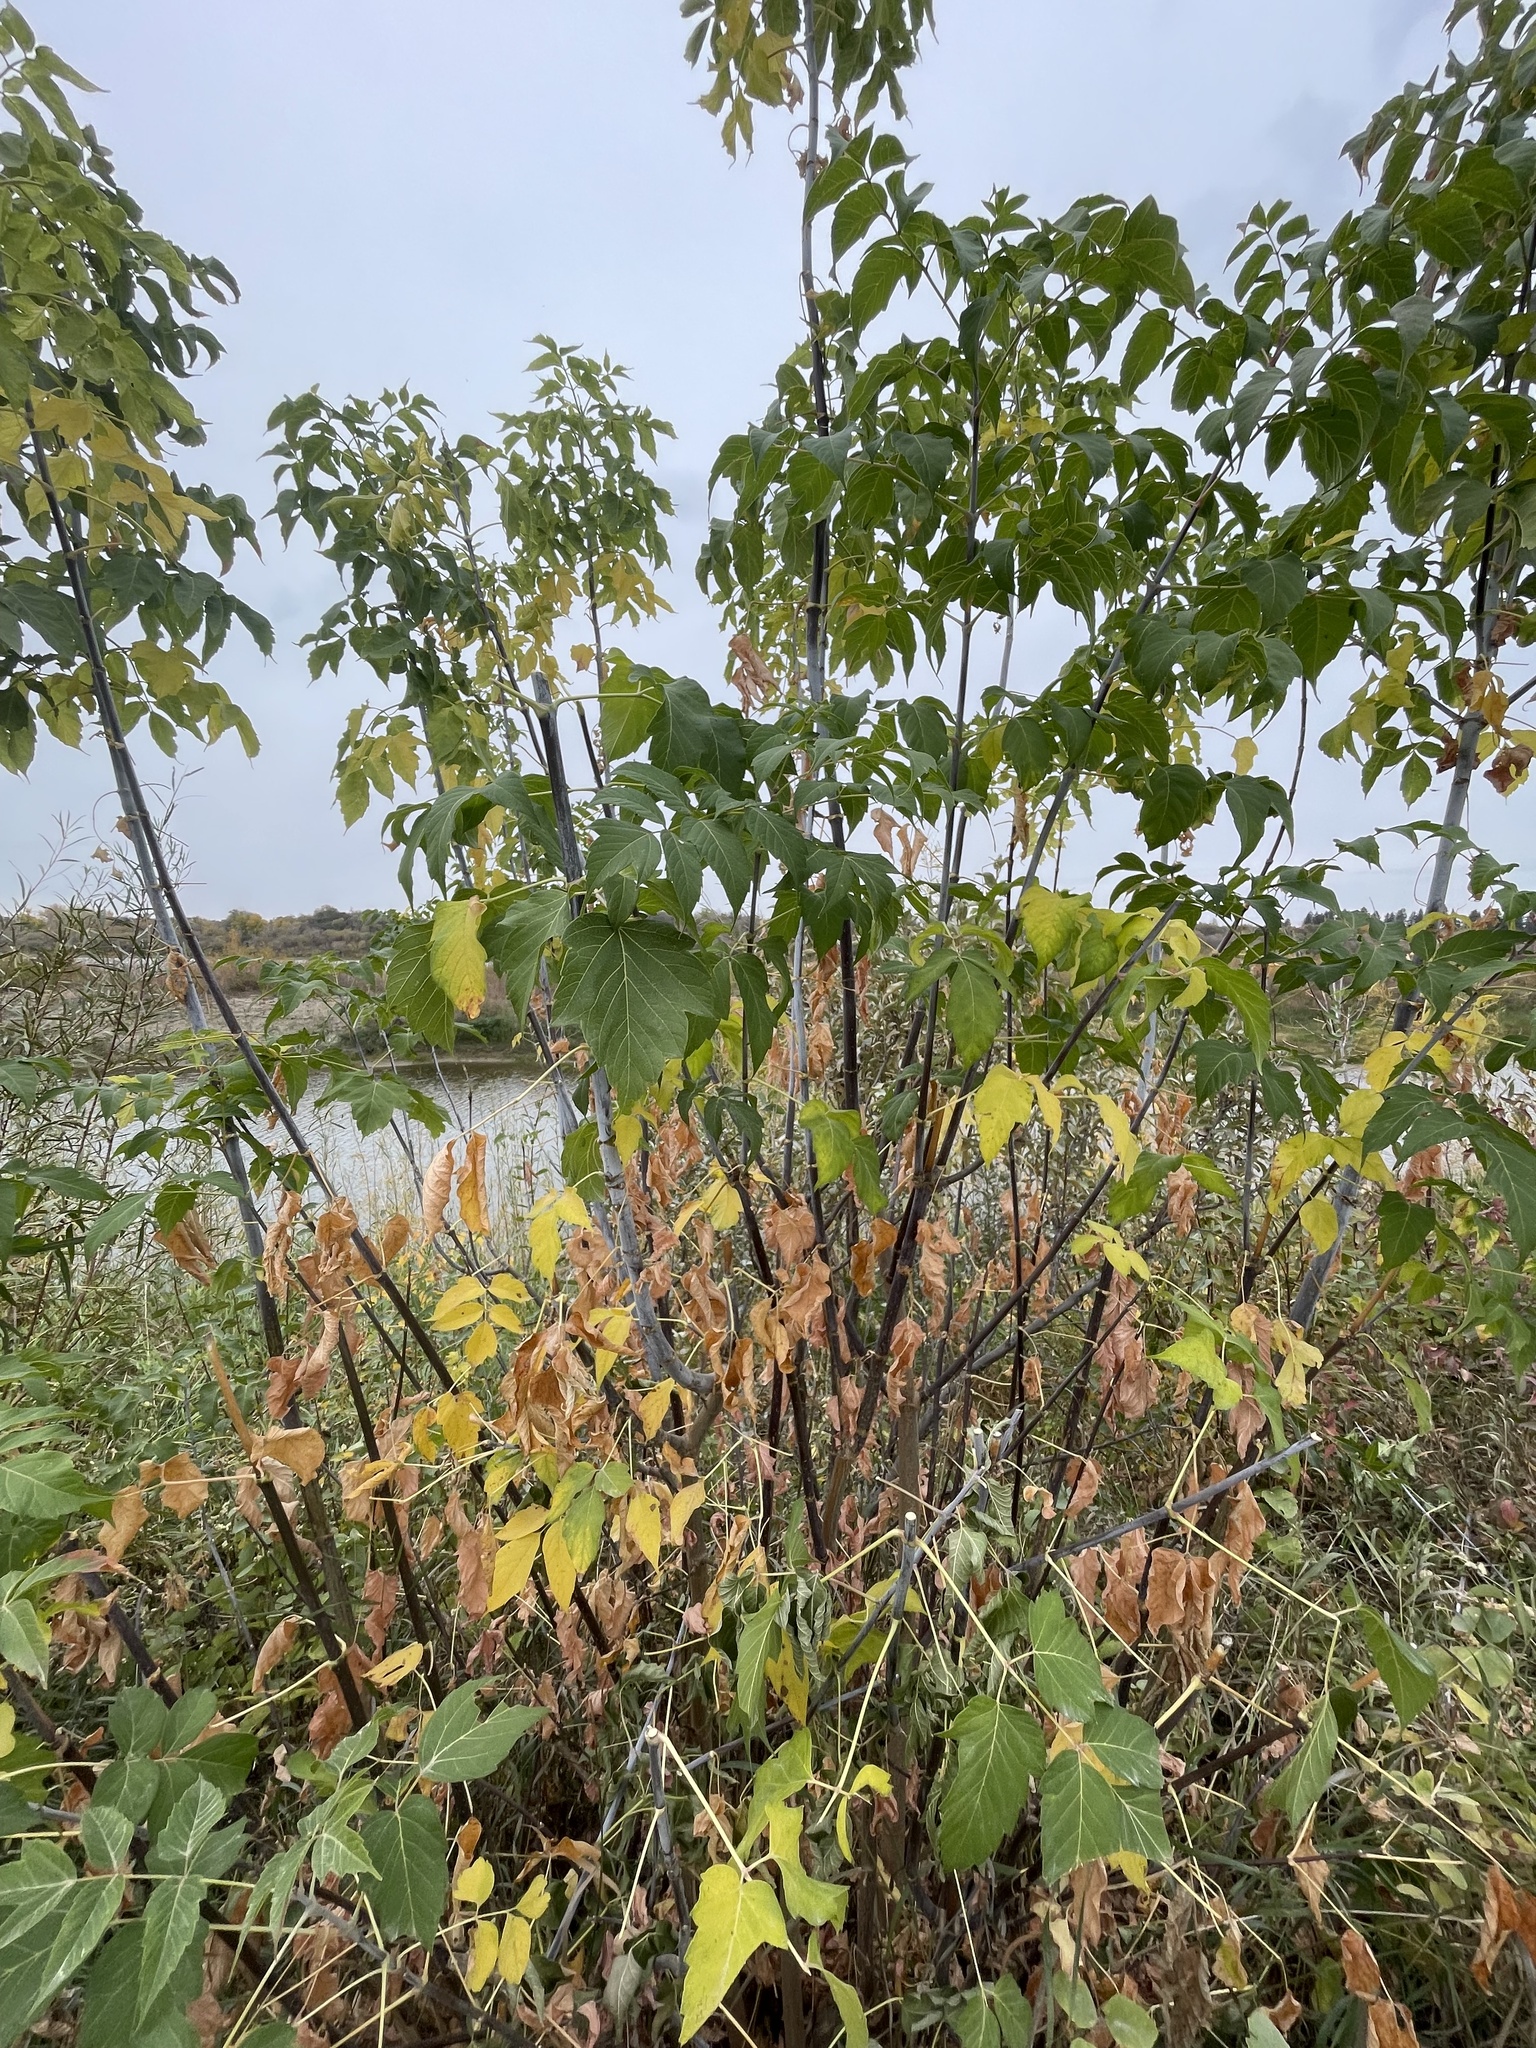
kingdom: Plantae
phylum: Tracheophyta
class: Magnoliopsida
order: Sapindales
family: Sapindaceae
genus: Acer
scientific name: Acer negundo
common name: Ashleaf maple
